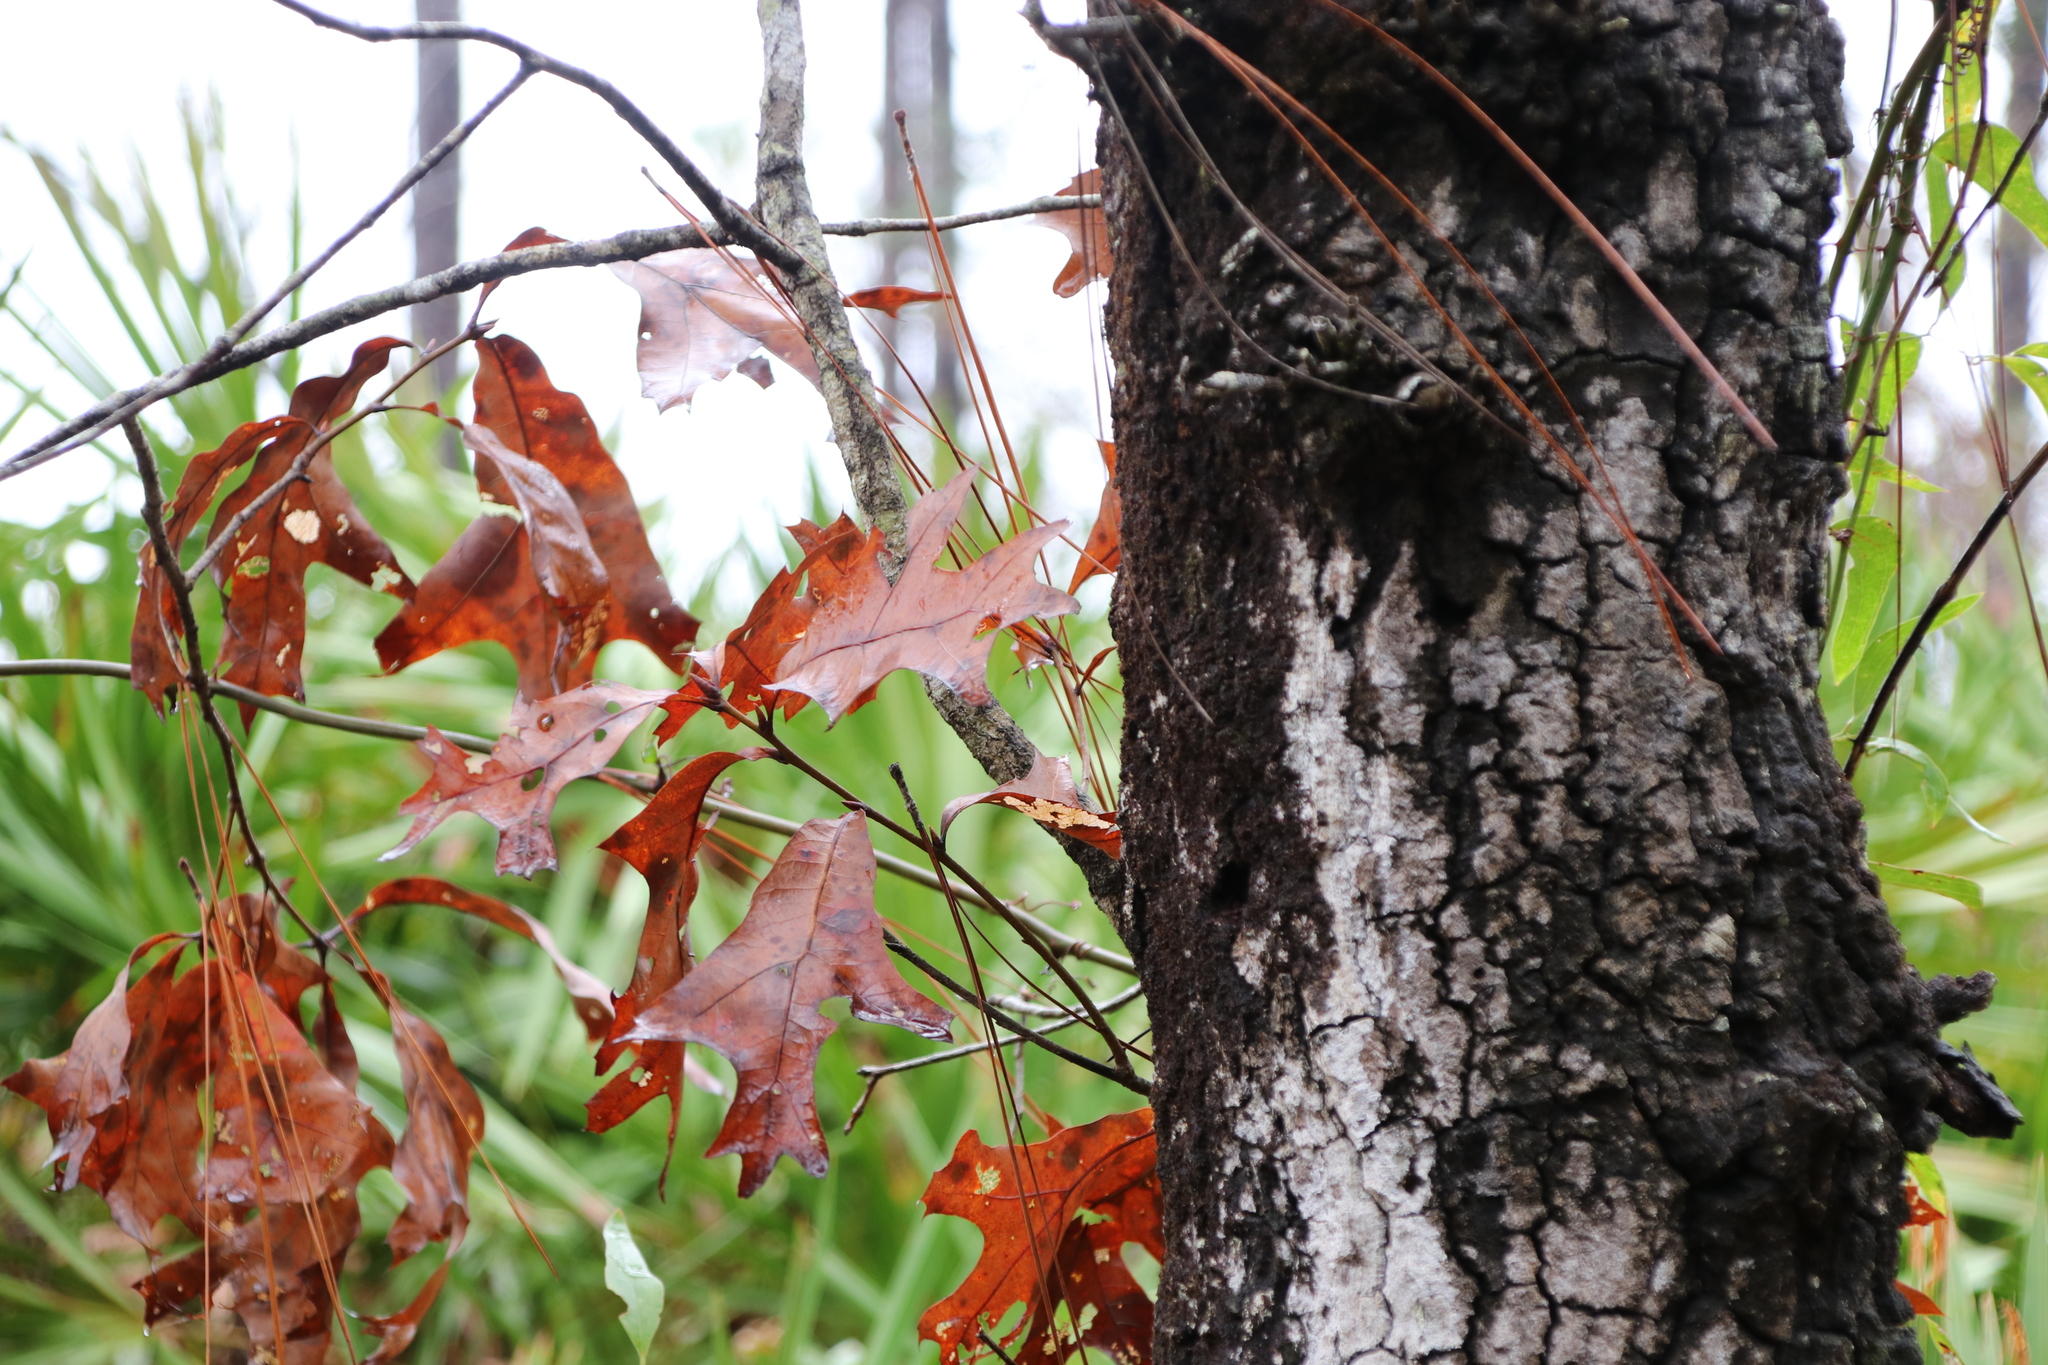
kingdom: Plantae
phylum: Tracheophyta
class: Magnoliopsida
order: Fagales
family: Fagaceae
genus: Quercus
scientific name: Quercus laevis
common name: Turkey oak
